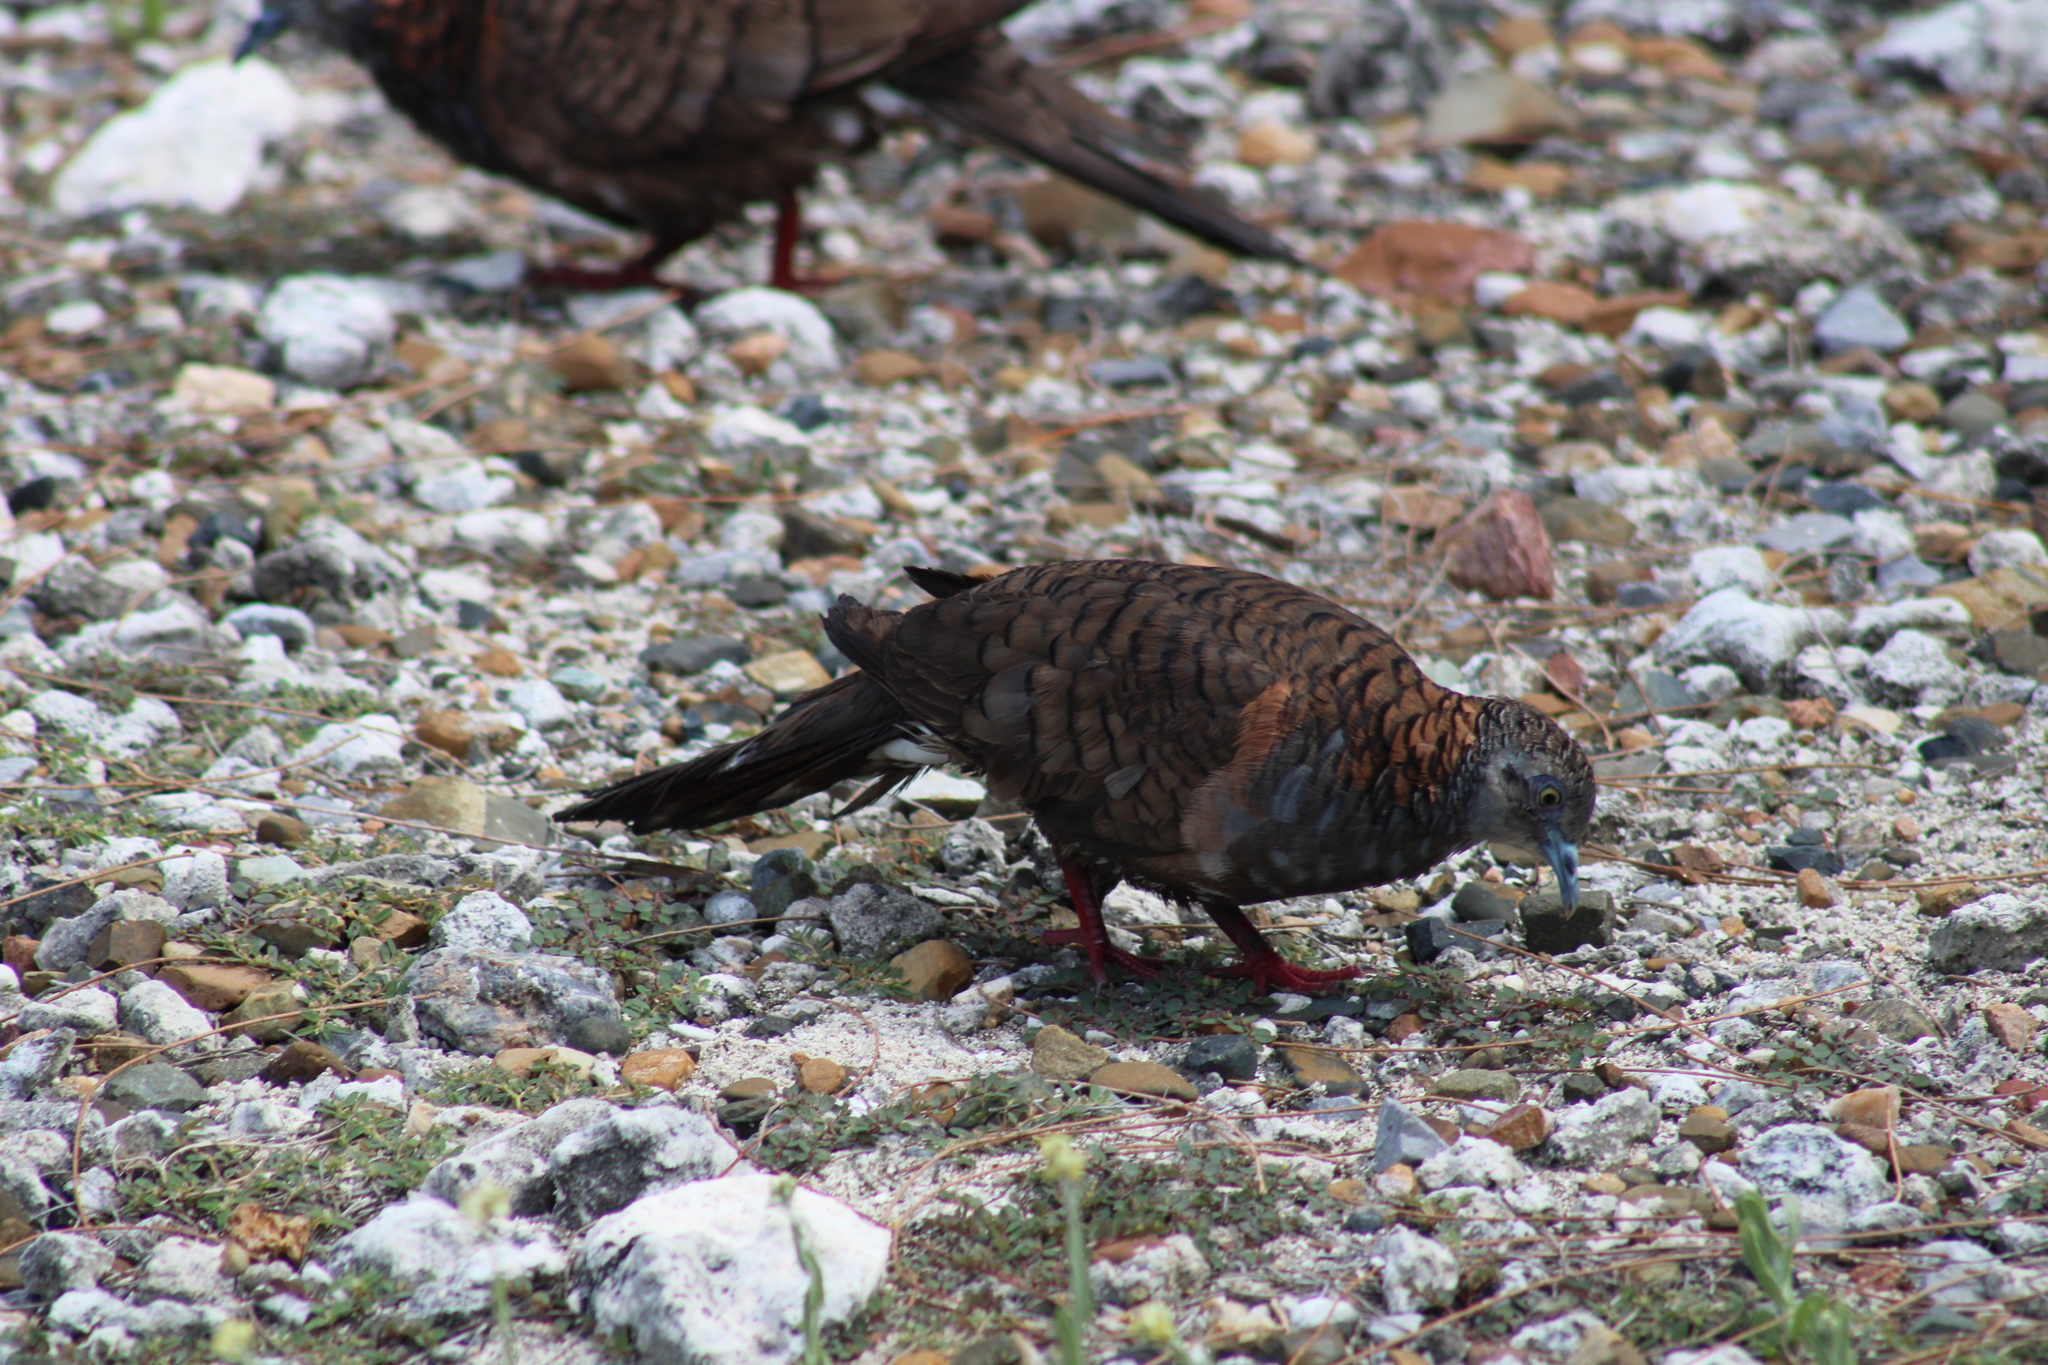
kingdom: Animalia
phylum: Chordata
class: Aves
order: Columbiformes
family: Columbidae
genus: Geopelia
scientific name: Geopelia humeralis
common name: Bar-shouldered dove
